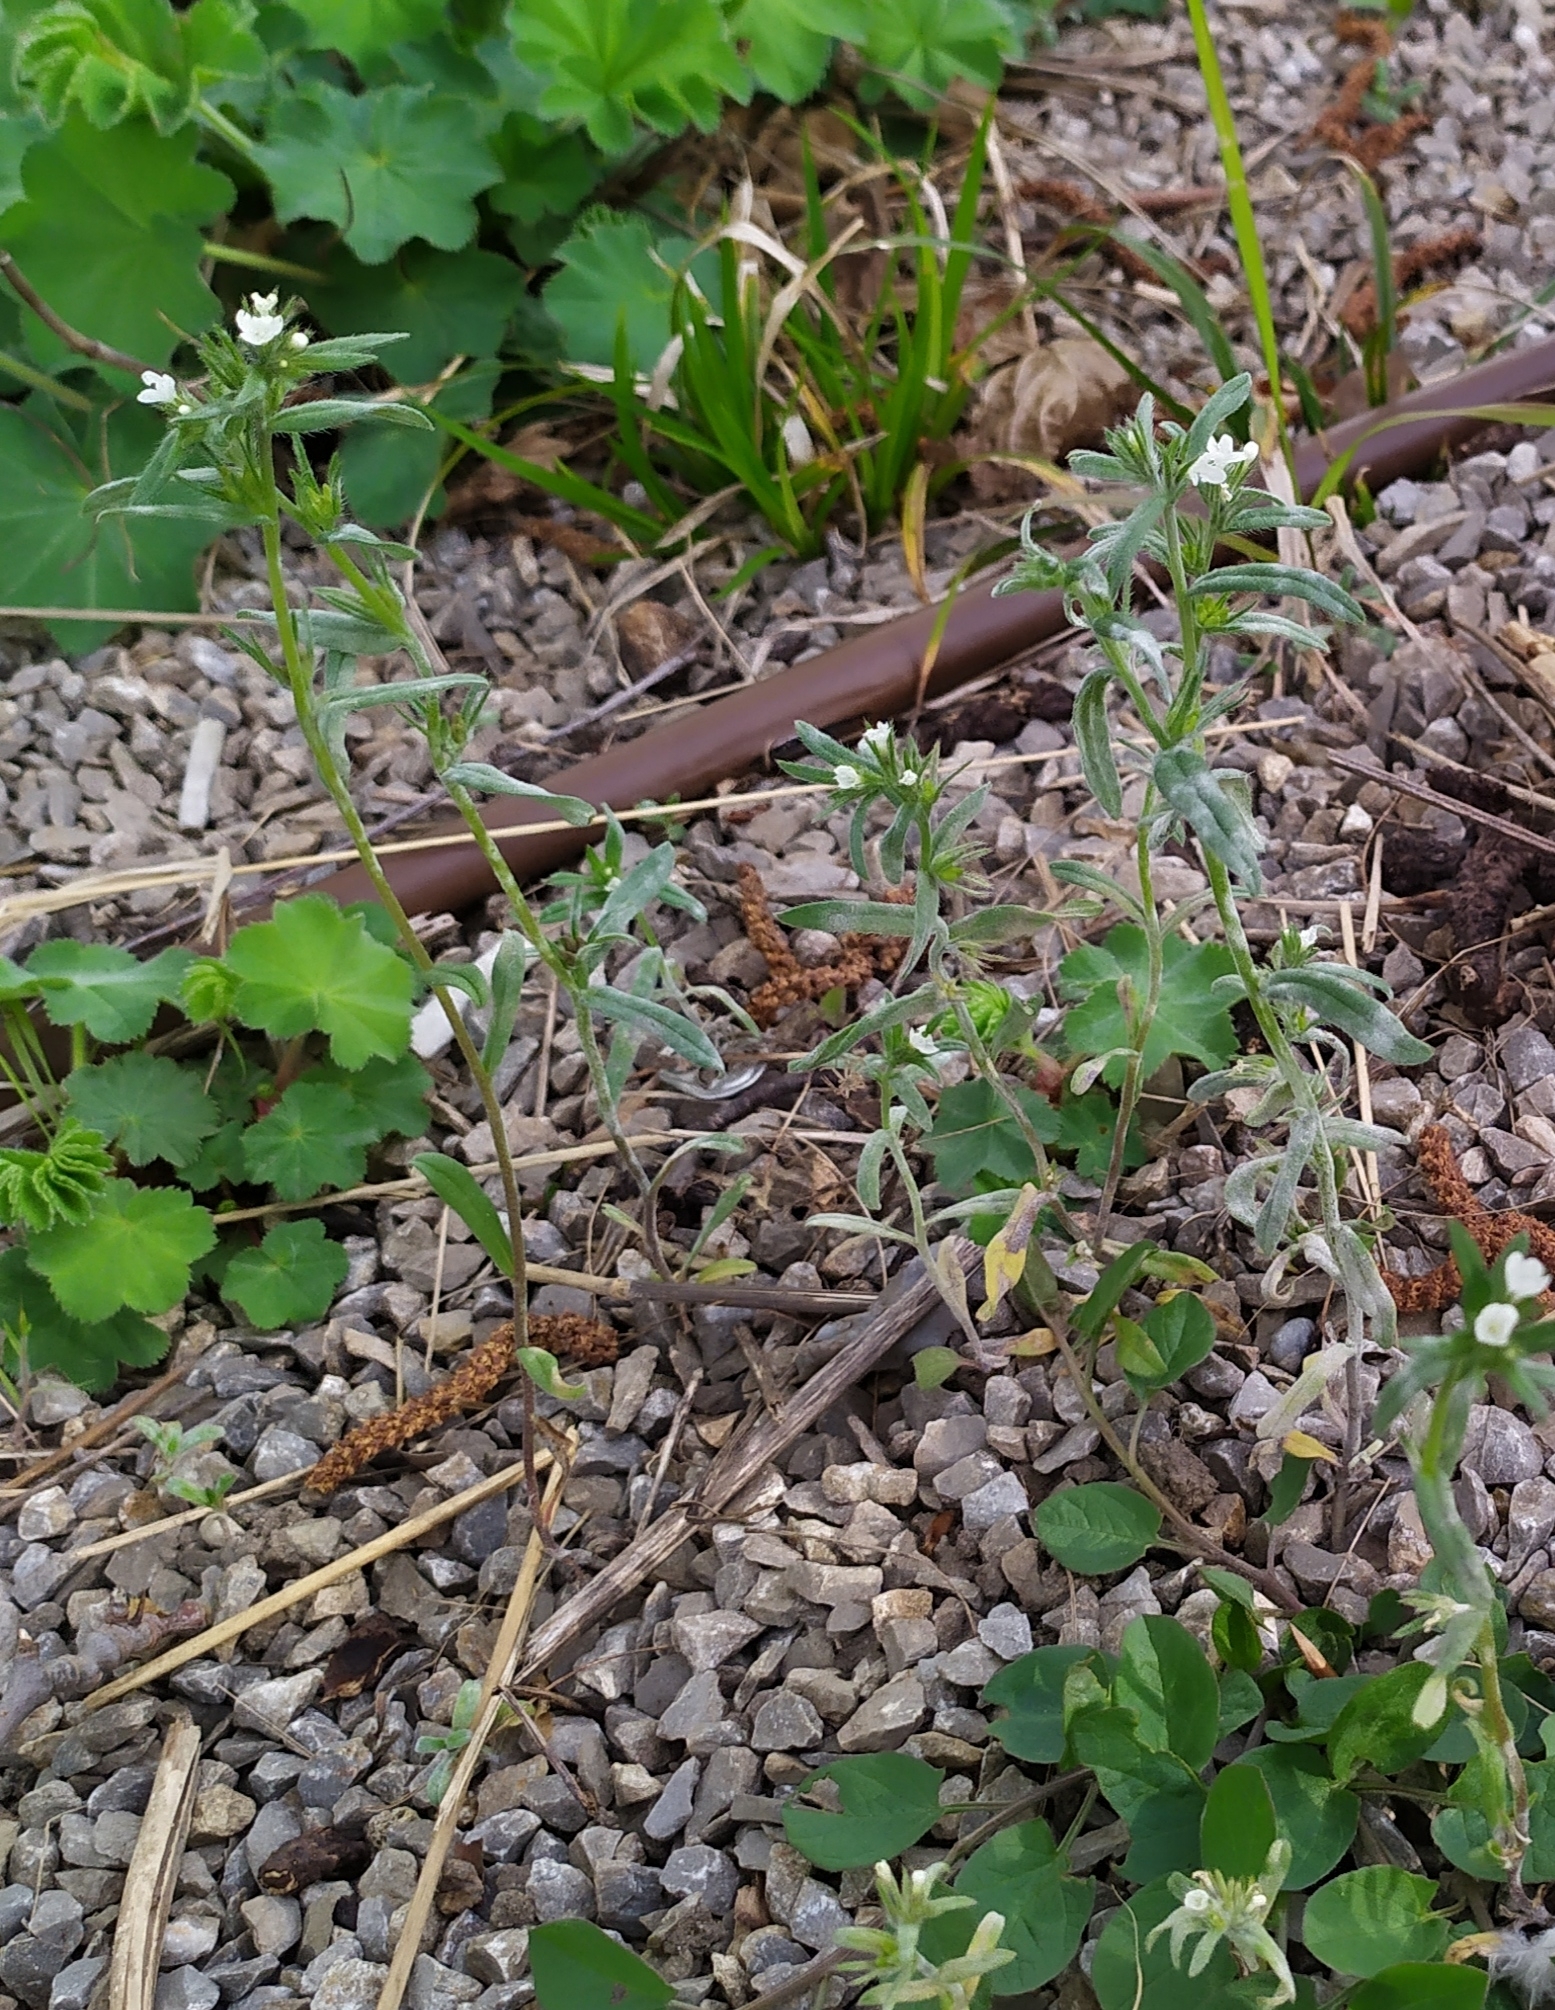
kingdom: Plantae
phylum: Tracheophyta
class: Magnoliopsida
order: Boraginales
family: Boraginaceae
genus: Buglossoides
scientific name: Buglossoides incrassata
